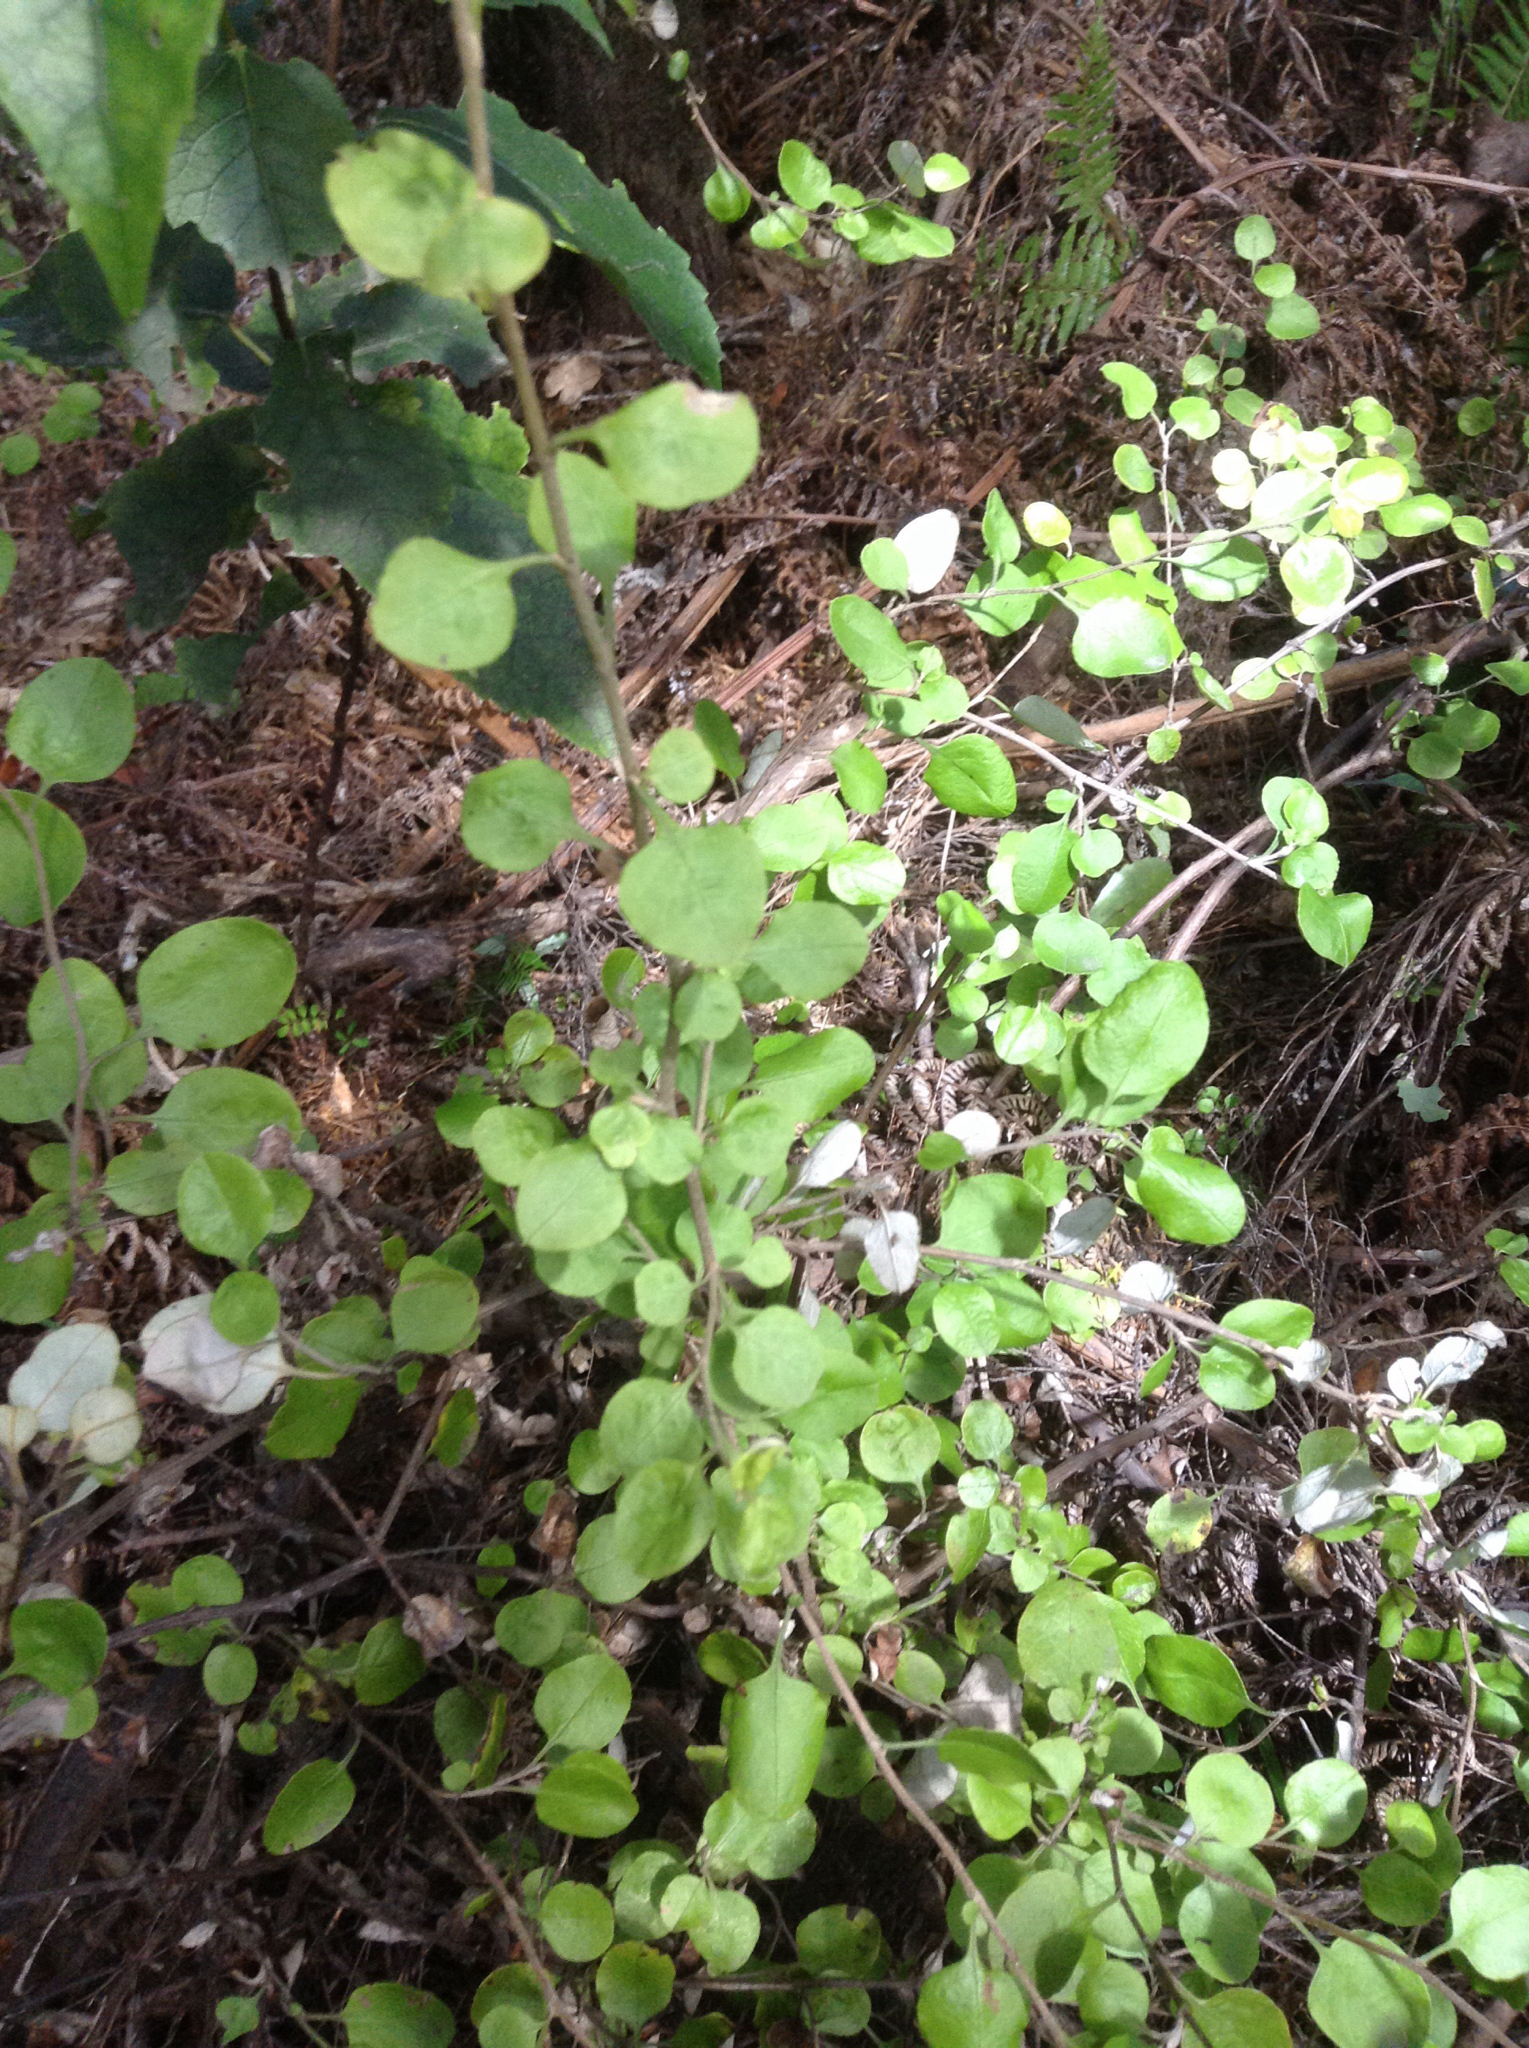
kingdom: Plantae
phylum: Tracheophyta
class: Magnoliopsida
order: Asterales
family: Asteraceae
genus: Ozothamnus
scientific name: Ozothamnus glomeratus
